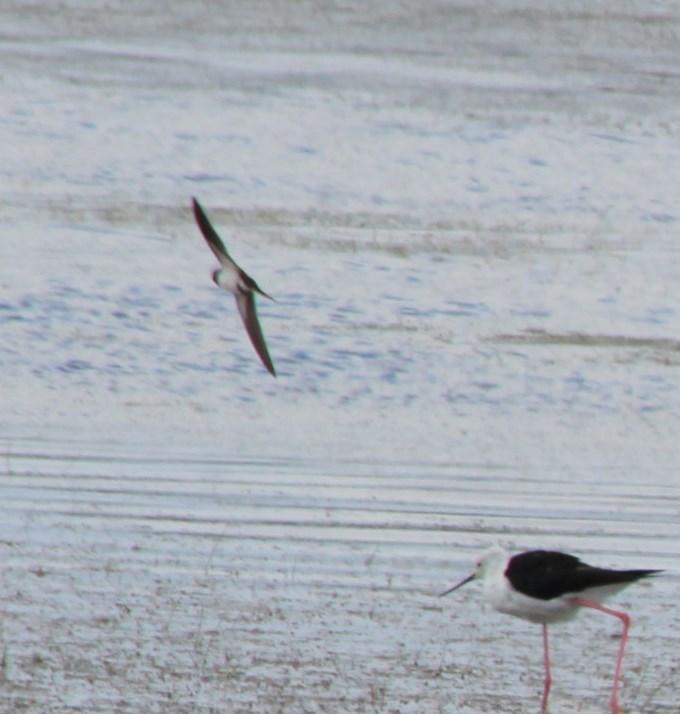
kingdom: Animalia
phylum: Chordata
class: Aves
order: Passeriformes
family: Hirundinidae
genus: Hirundo
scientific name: Hirundo albigularis
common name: White-throated swallow
